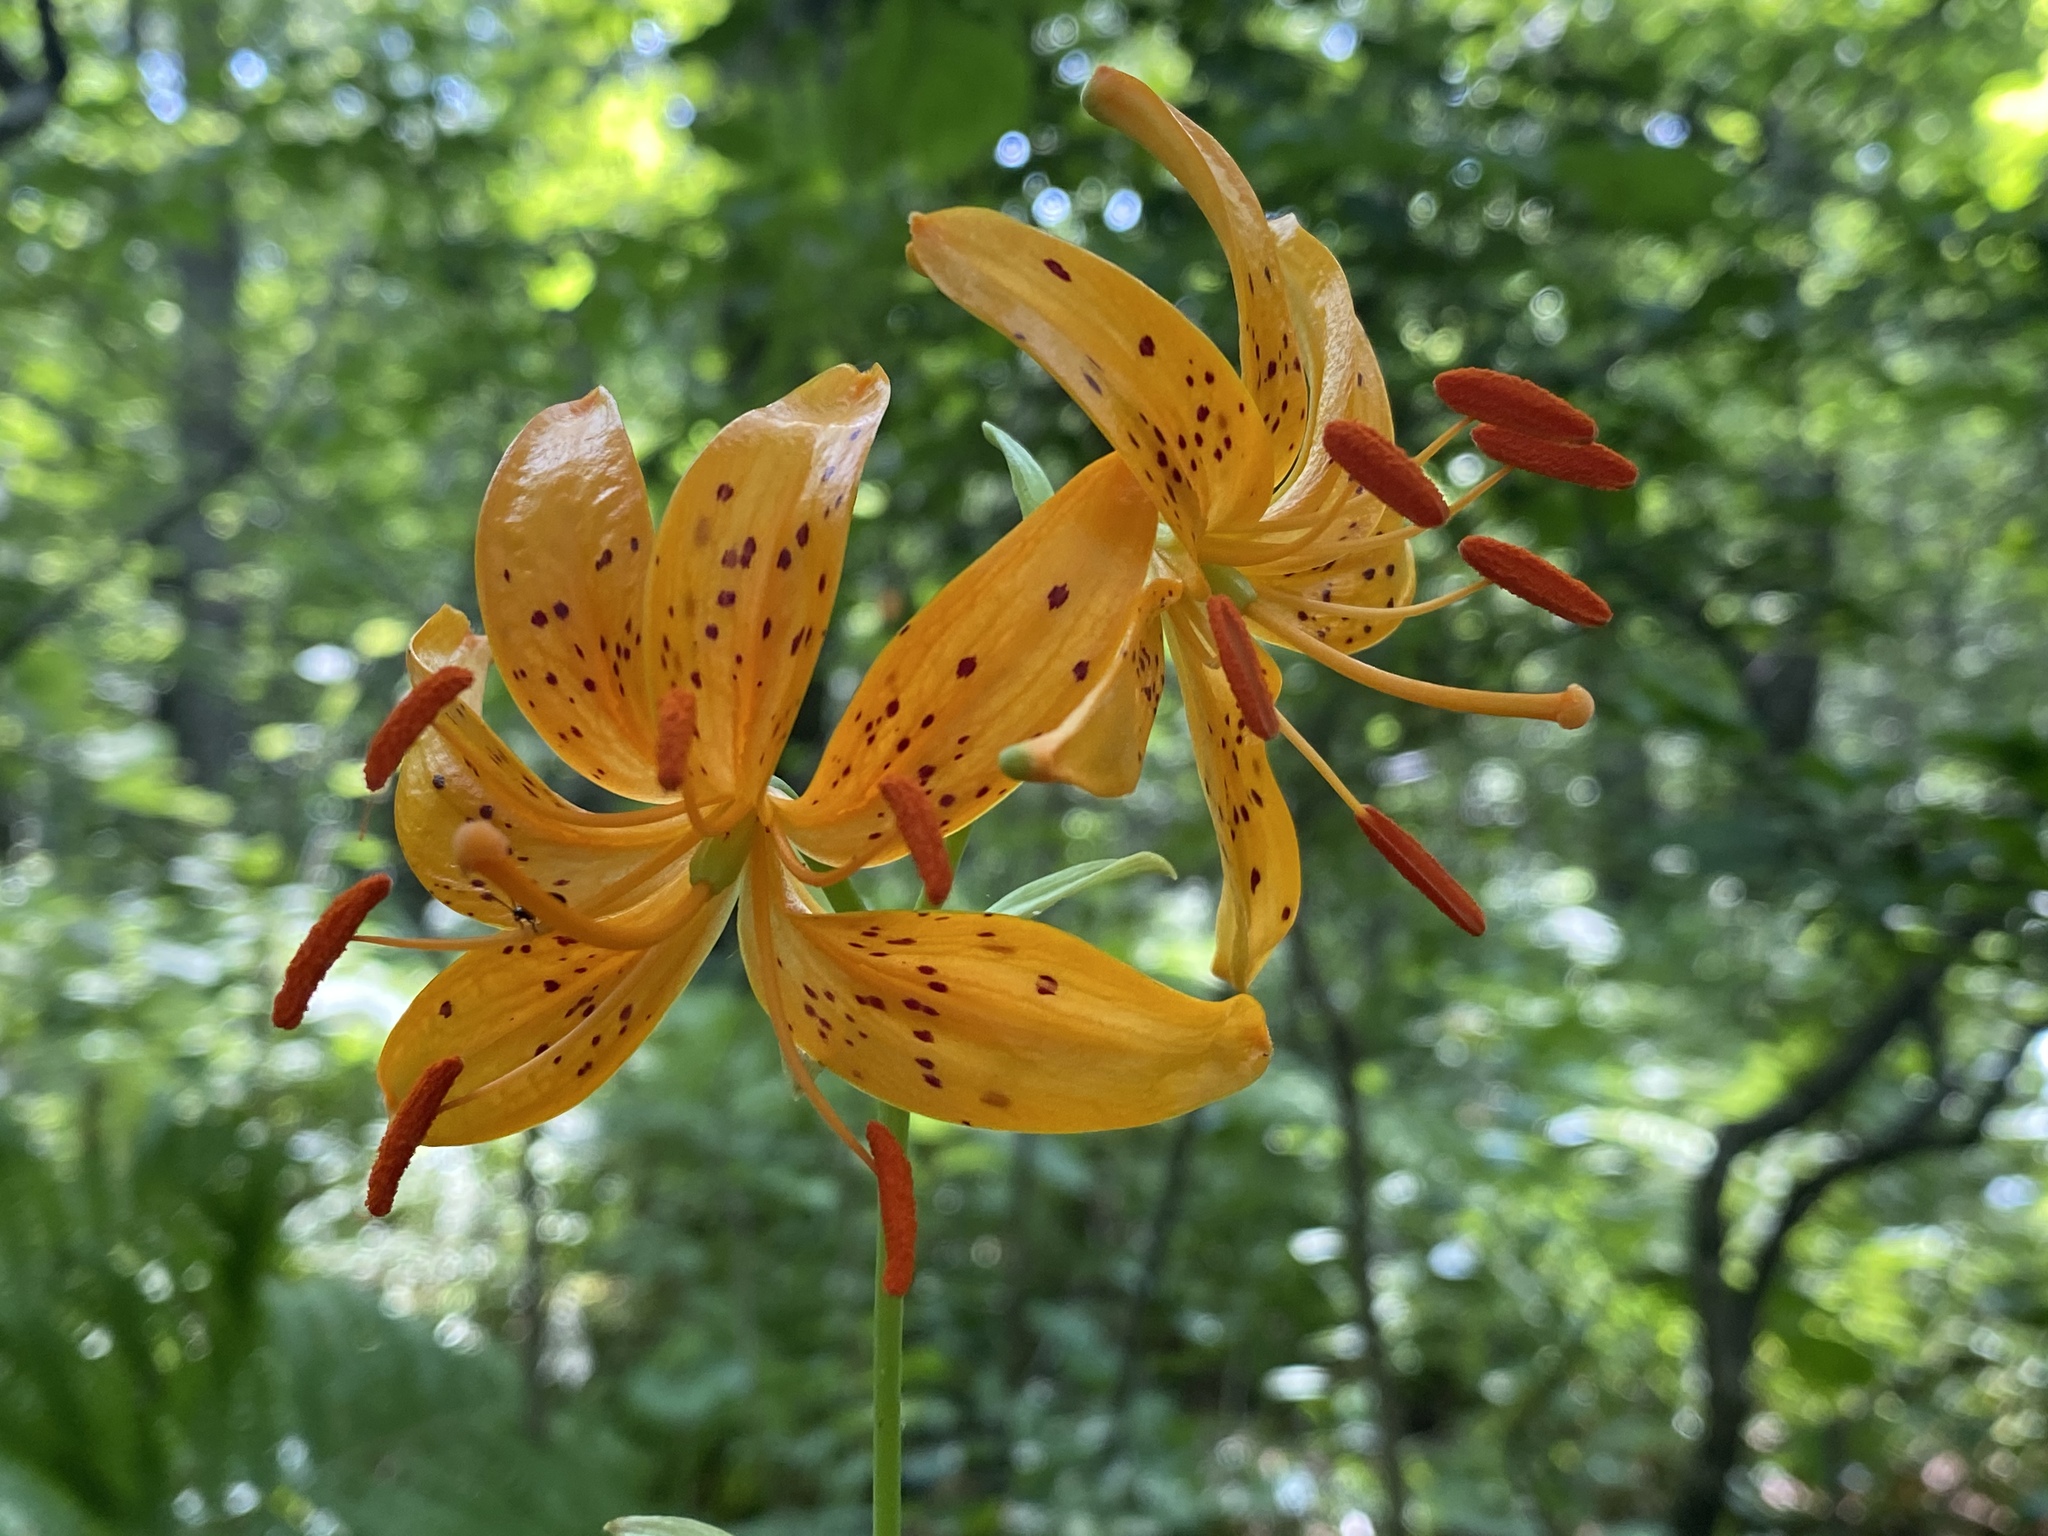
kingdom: Plantae
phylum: Tracheophyta
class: Liliopsida
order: Liliales
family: Liliaceae
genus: Lilium
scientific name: Lilium distichum
